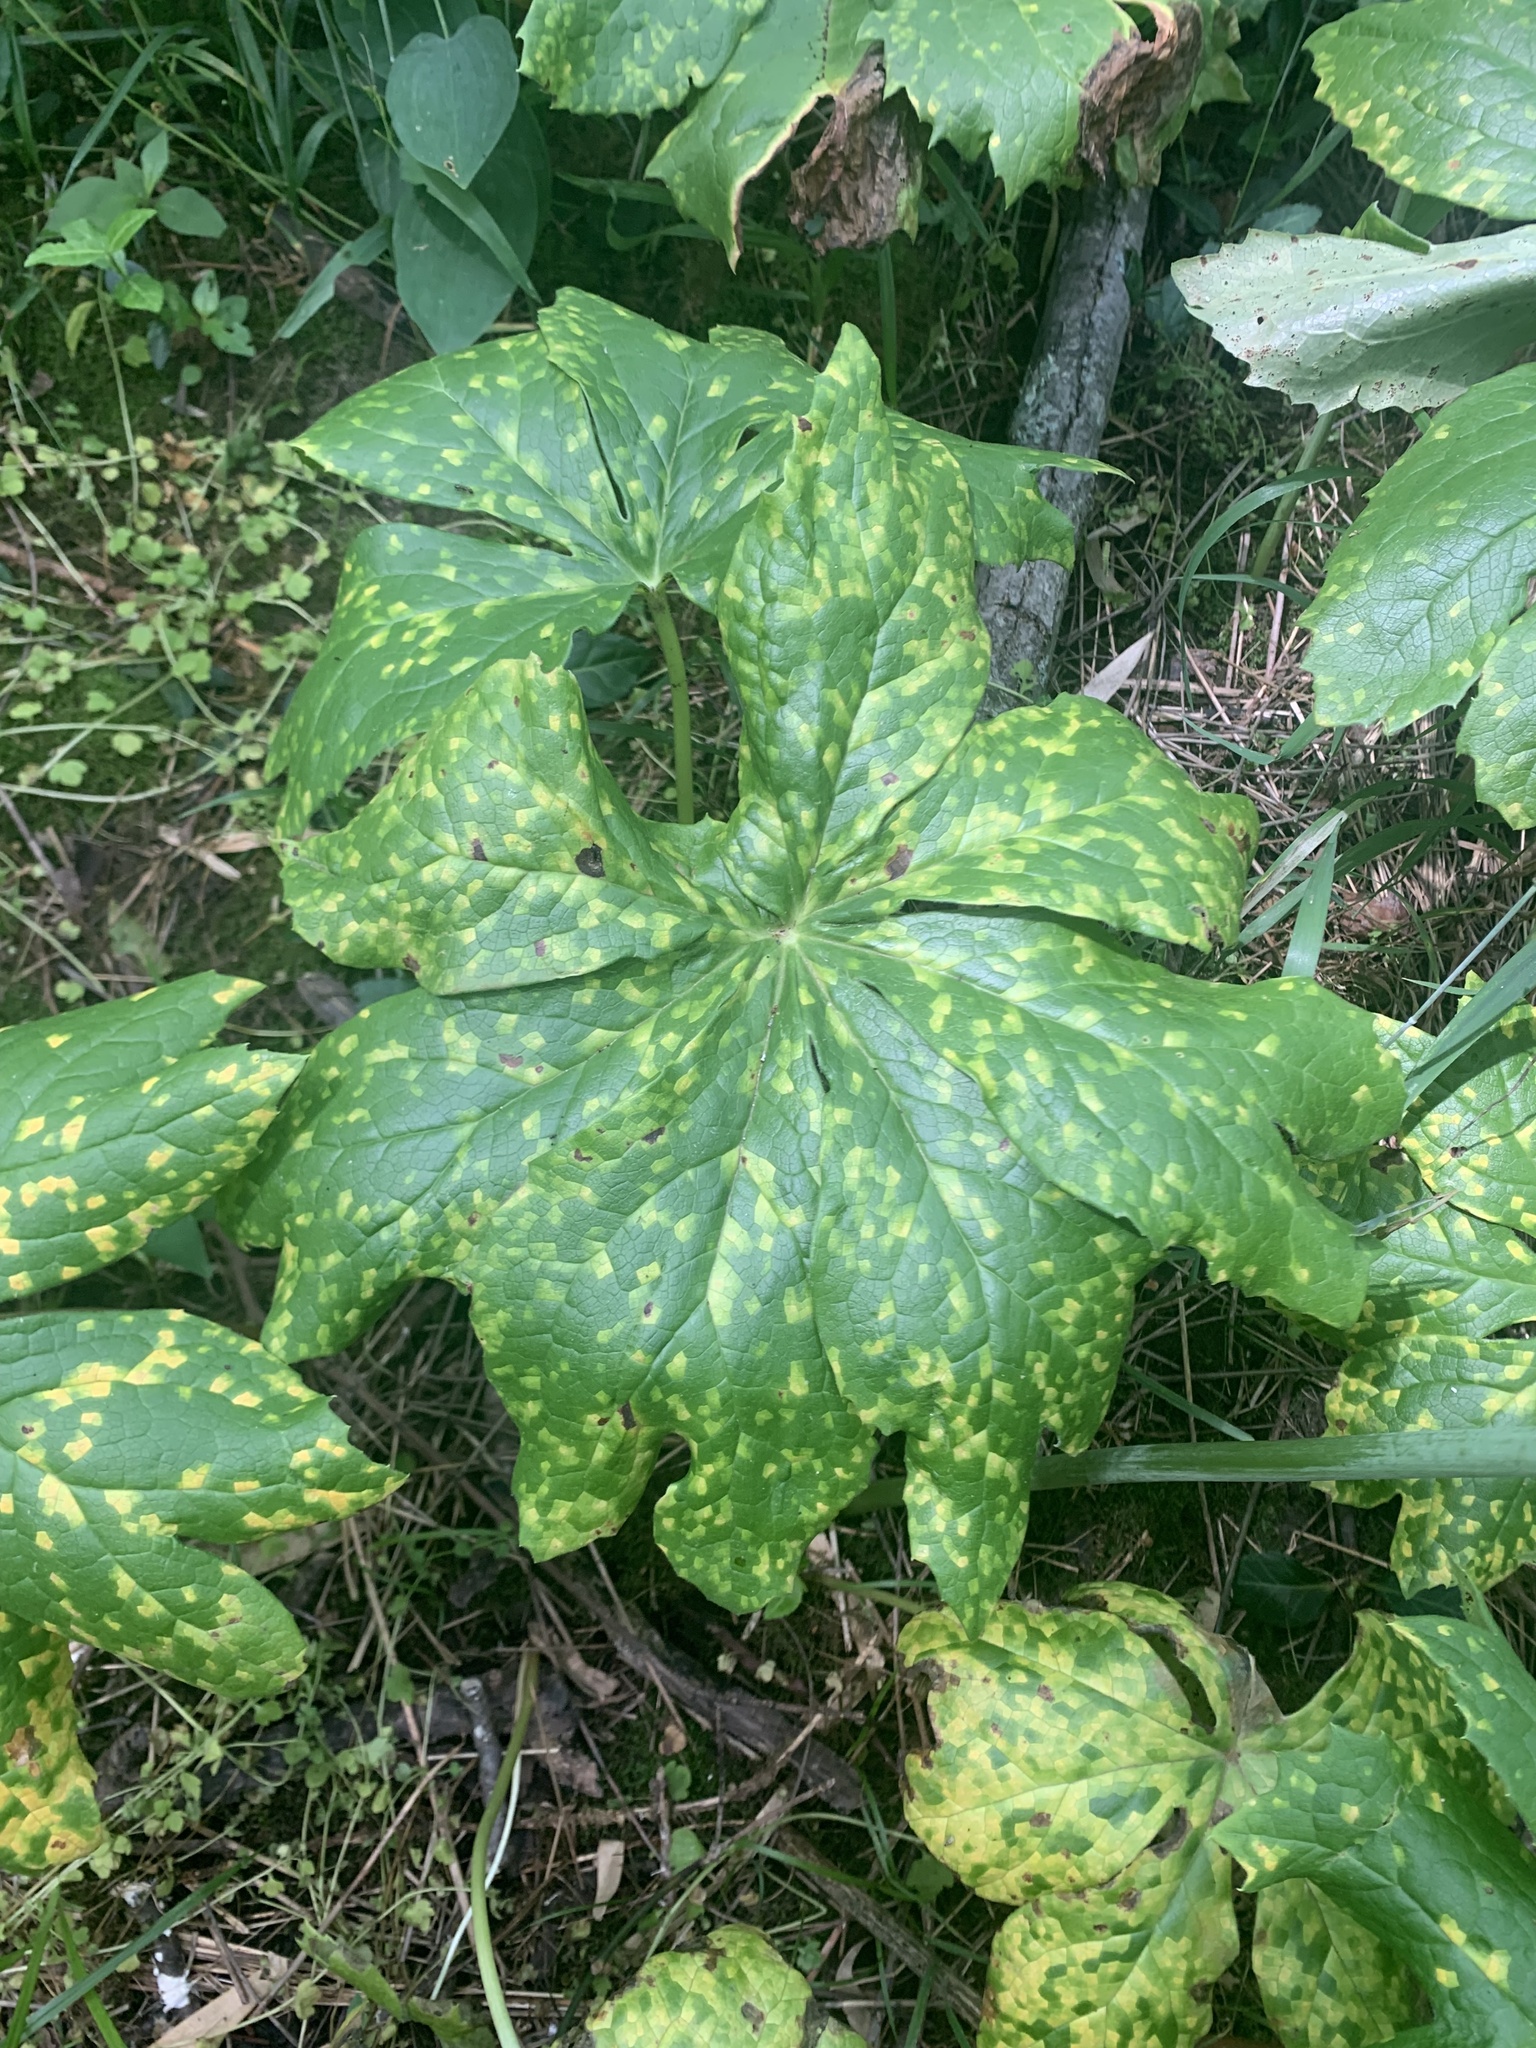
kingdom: Fungi
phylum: Basidiomycota
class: Pucciniomycetes
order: Pucciniales
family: Pucciniaceae
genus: Puccinia
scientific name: Puccinia podophylli
